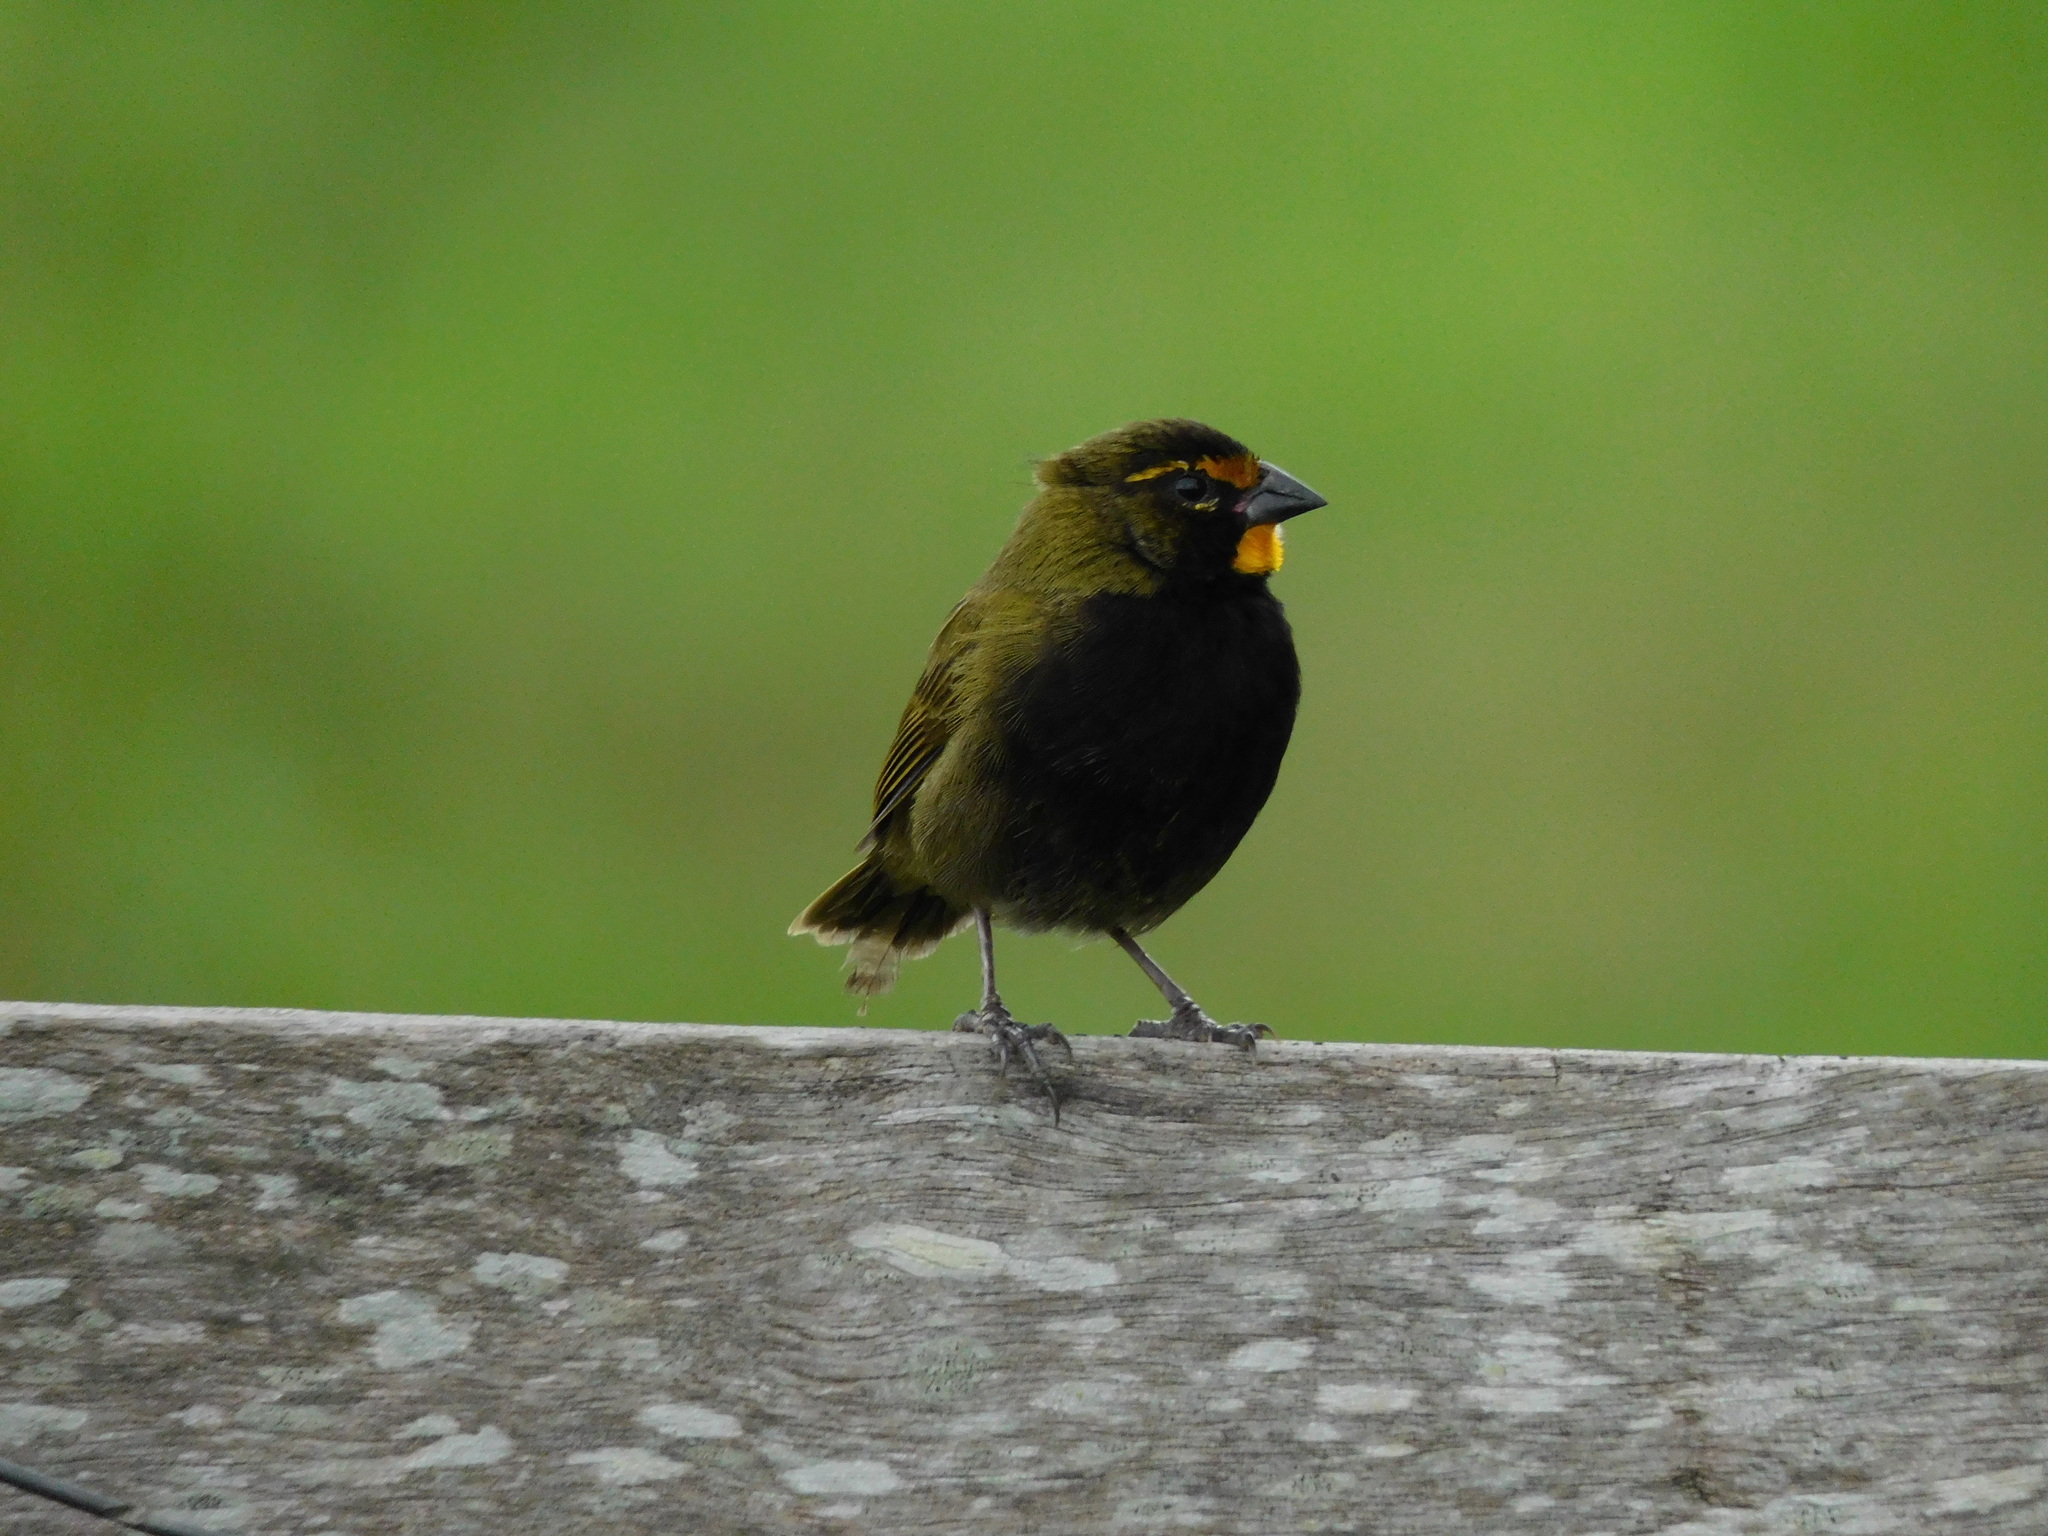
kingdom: Animalia
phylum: Chordata
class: Aves
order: Passeriformes
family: Thraupidae
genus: Tiaris
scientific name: Tiaris olivaceus
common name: Yellow-faced grassquit
